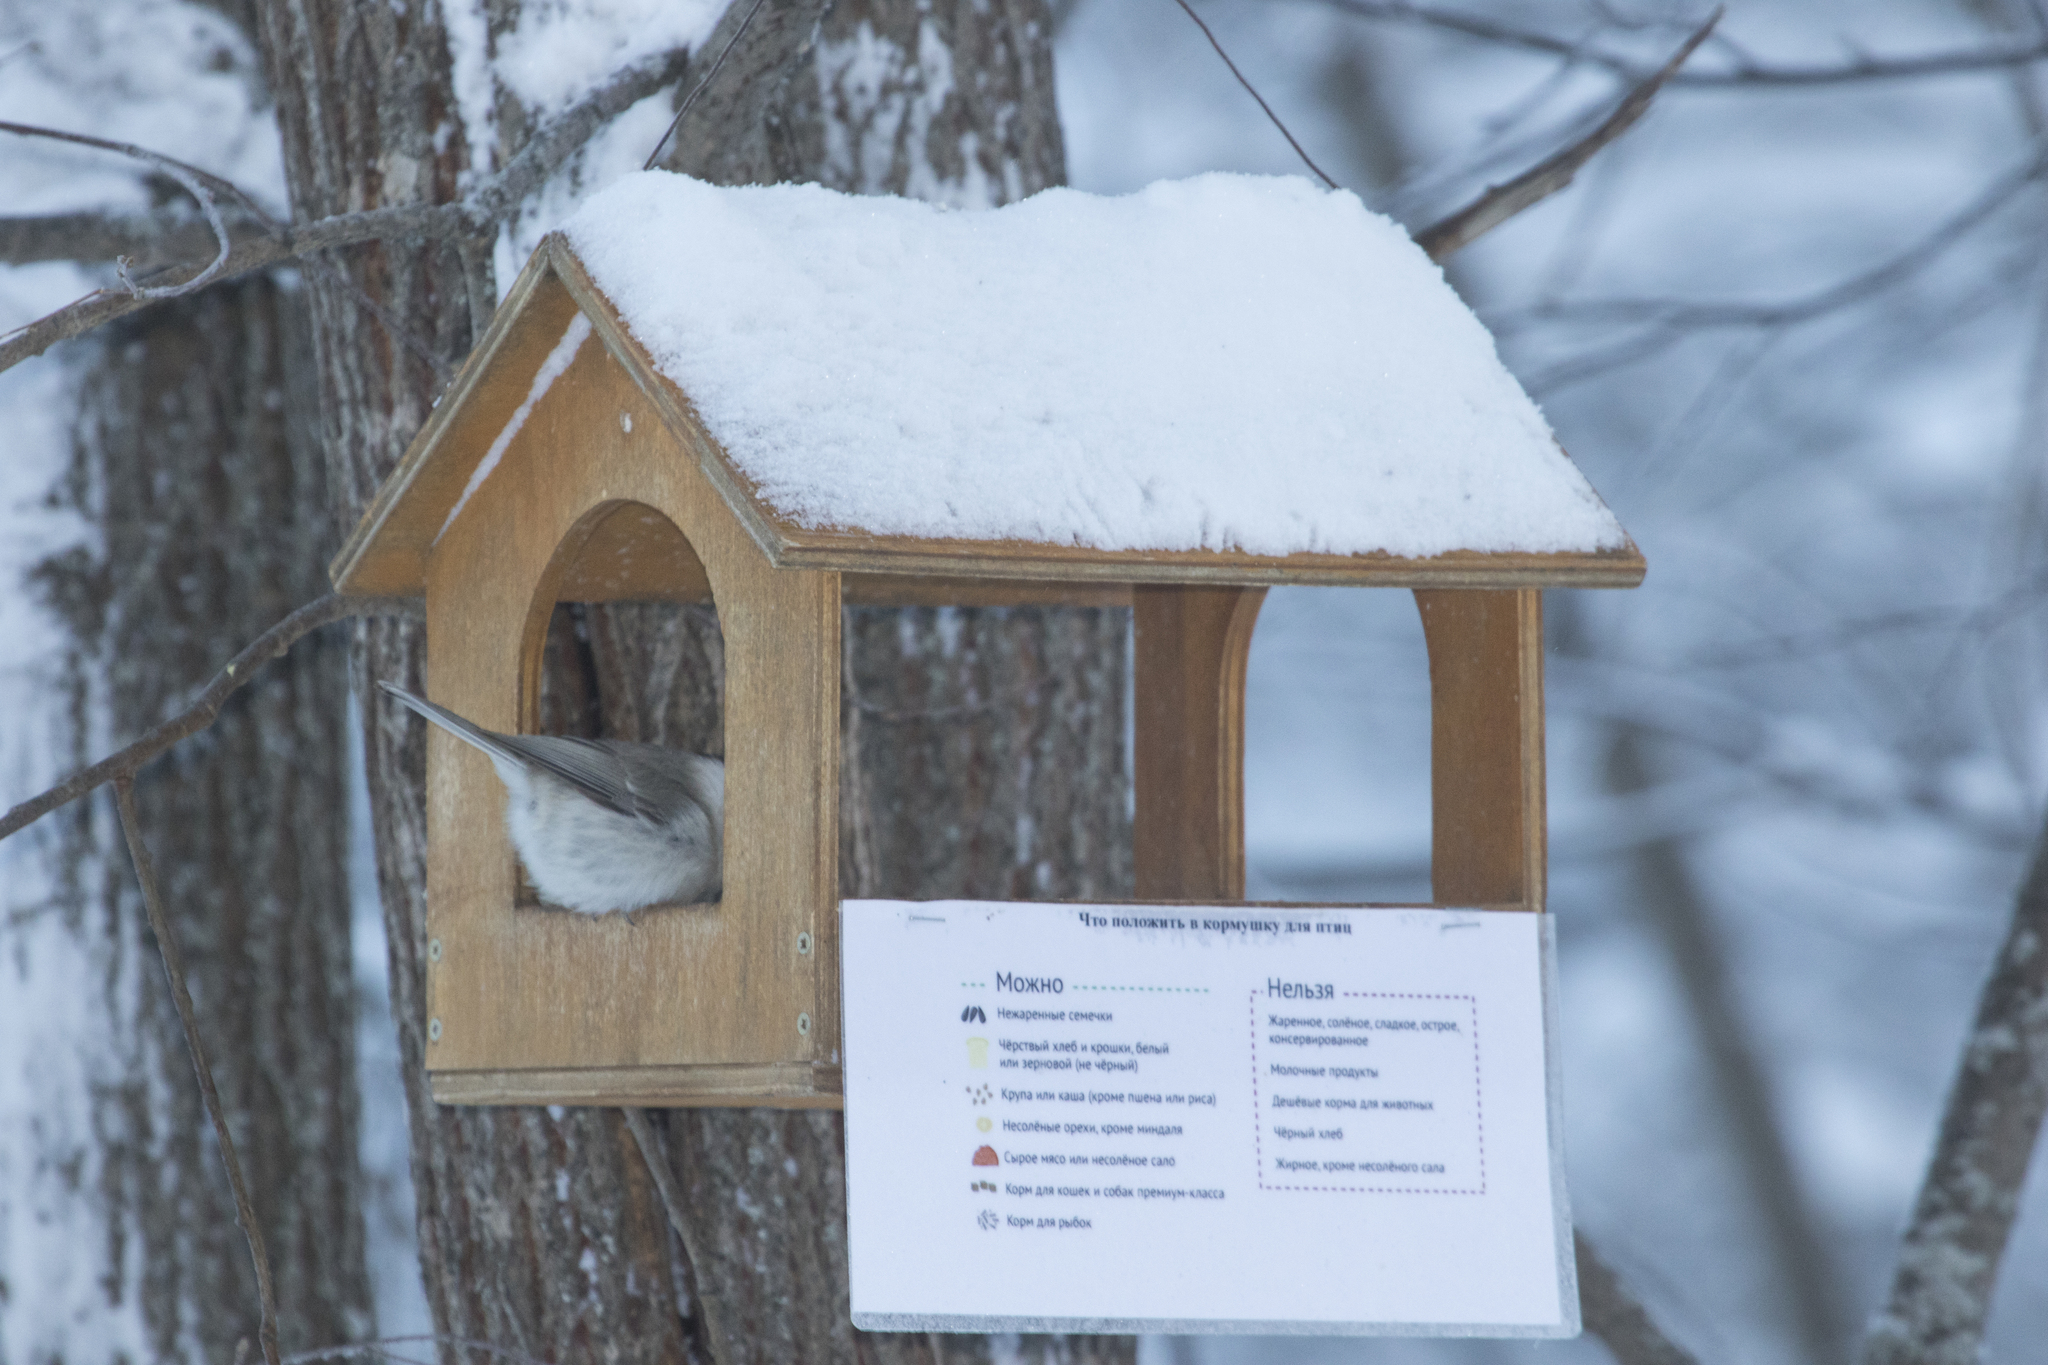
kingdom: Animalia
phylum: Chordata
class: Aves
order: Passeriformes
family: Paridae
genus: Poecile
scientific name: Poecile montanus
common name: Willow tit
